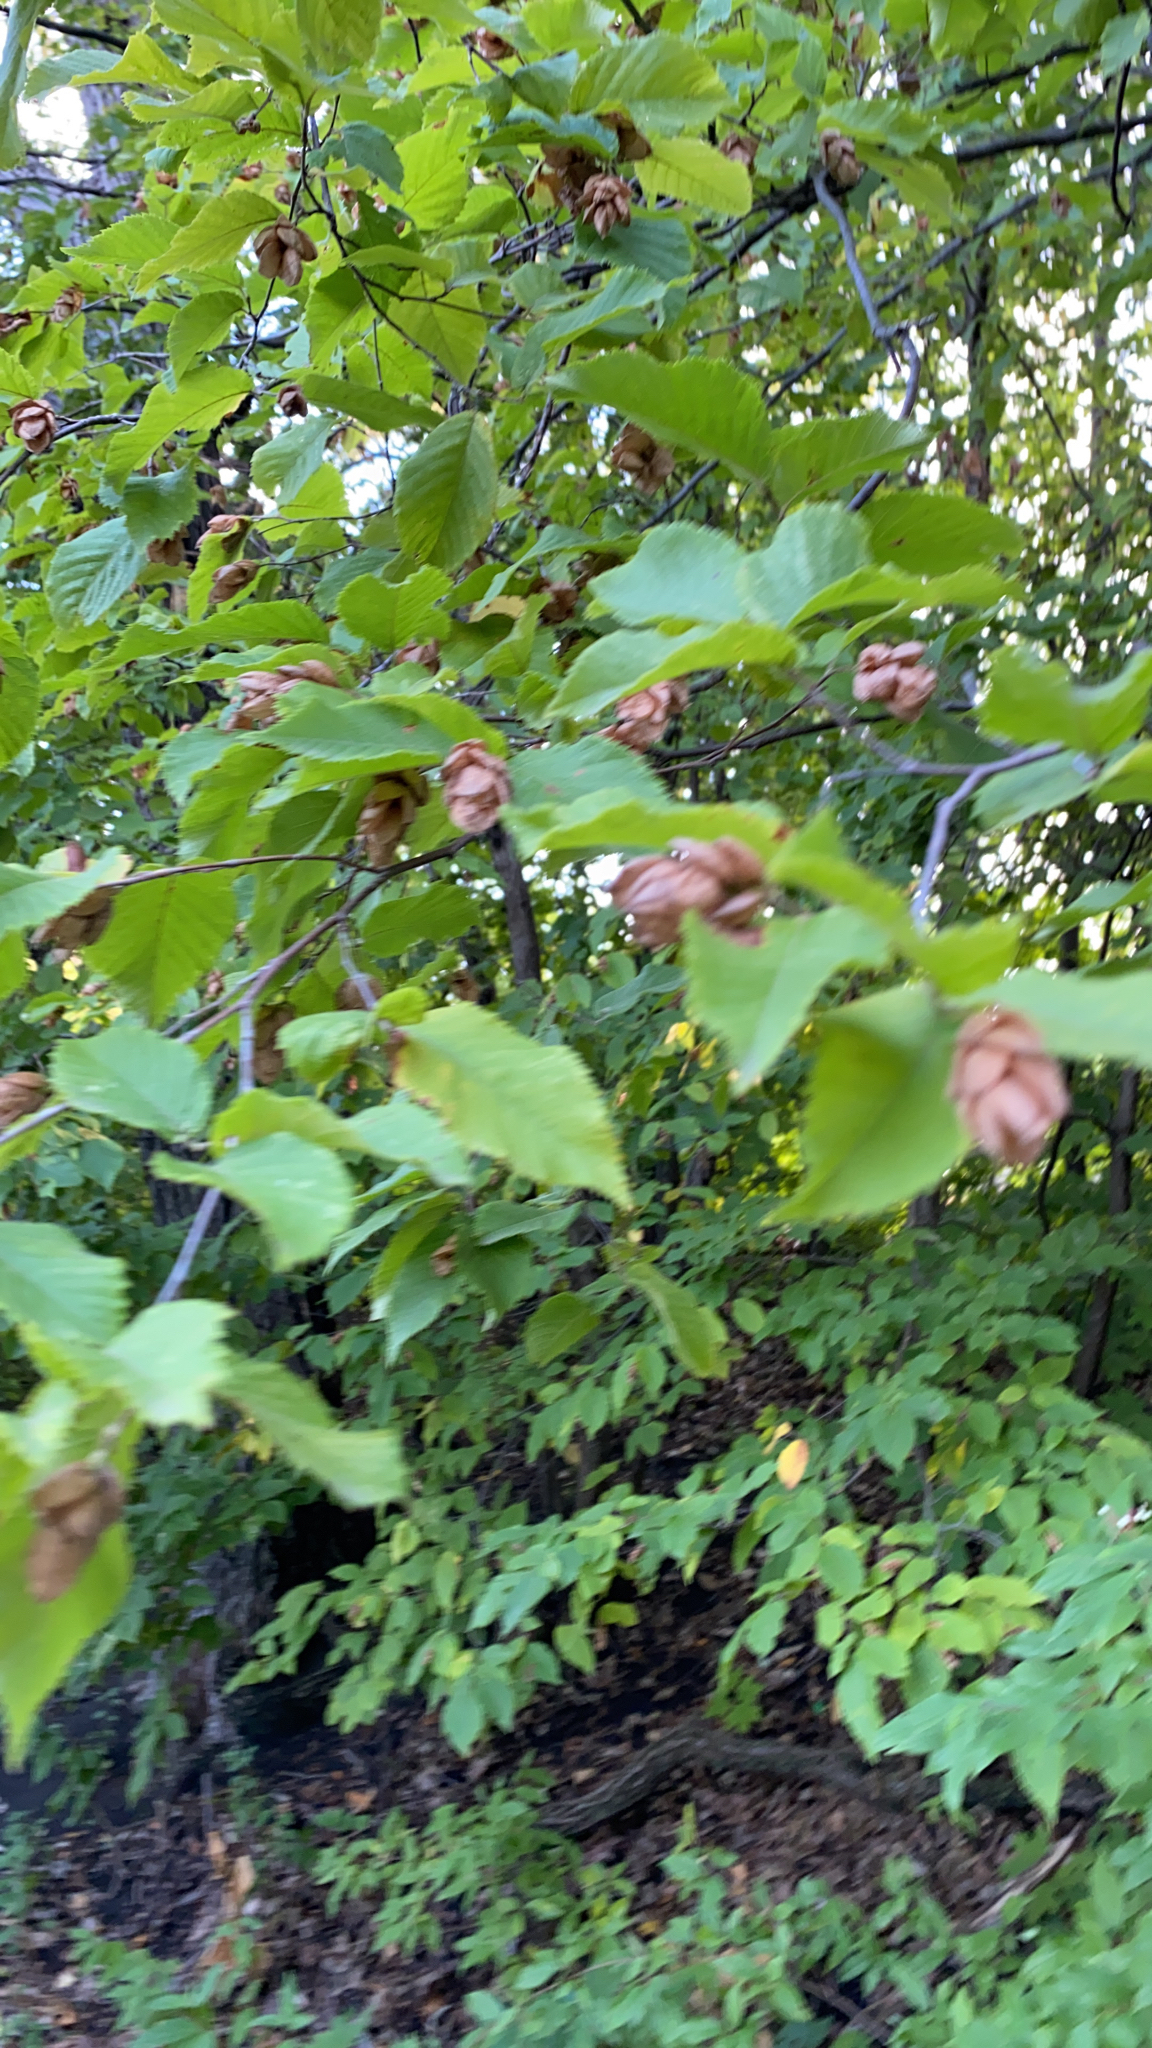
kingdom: Plantae
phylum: Tracheophyta
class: Magnoliopsida
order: Fagales
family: Betulaceae
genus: Ostrya
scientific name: Ostrya virginiana
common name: Ironwood
